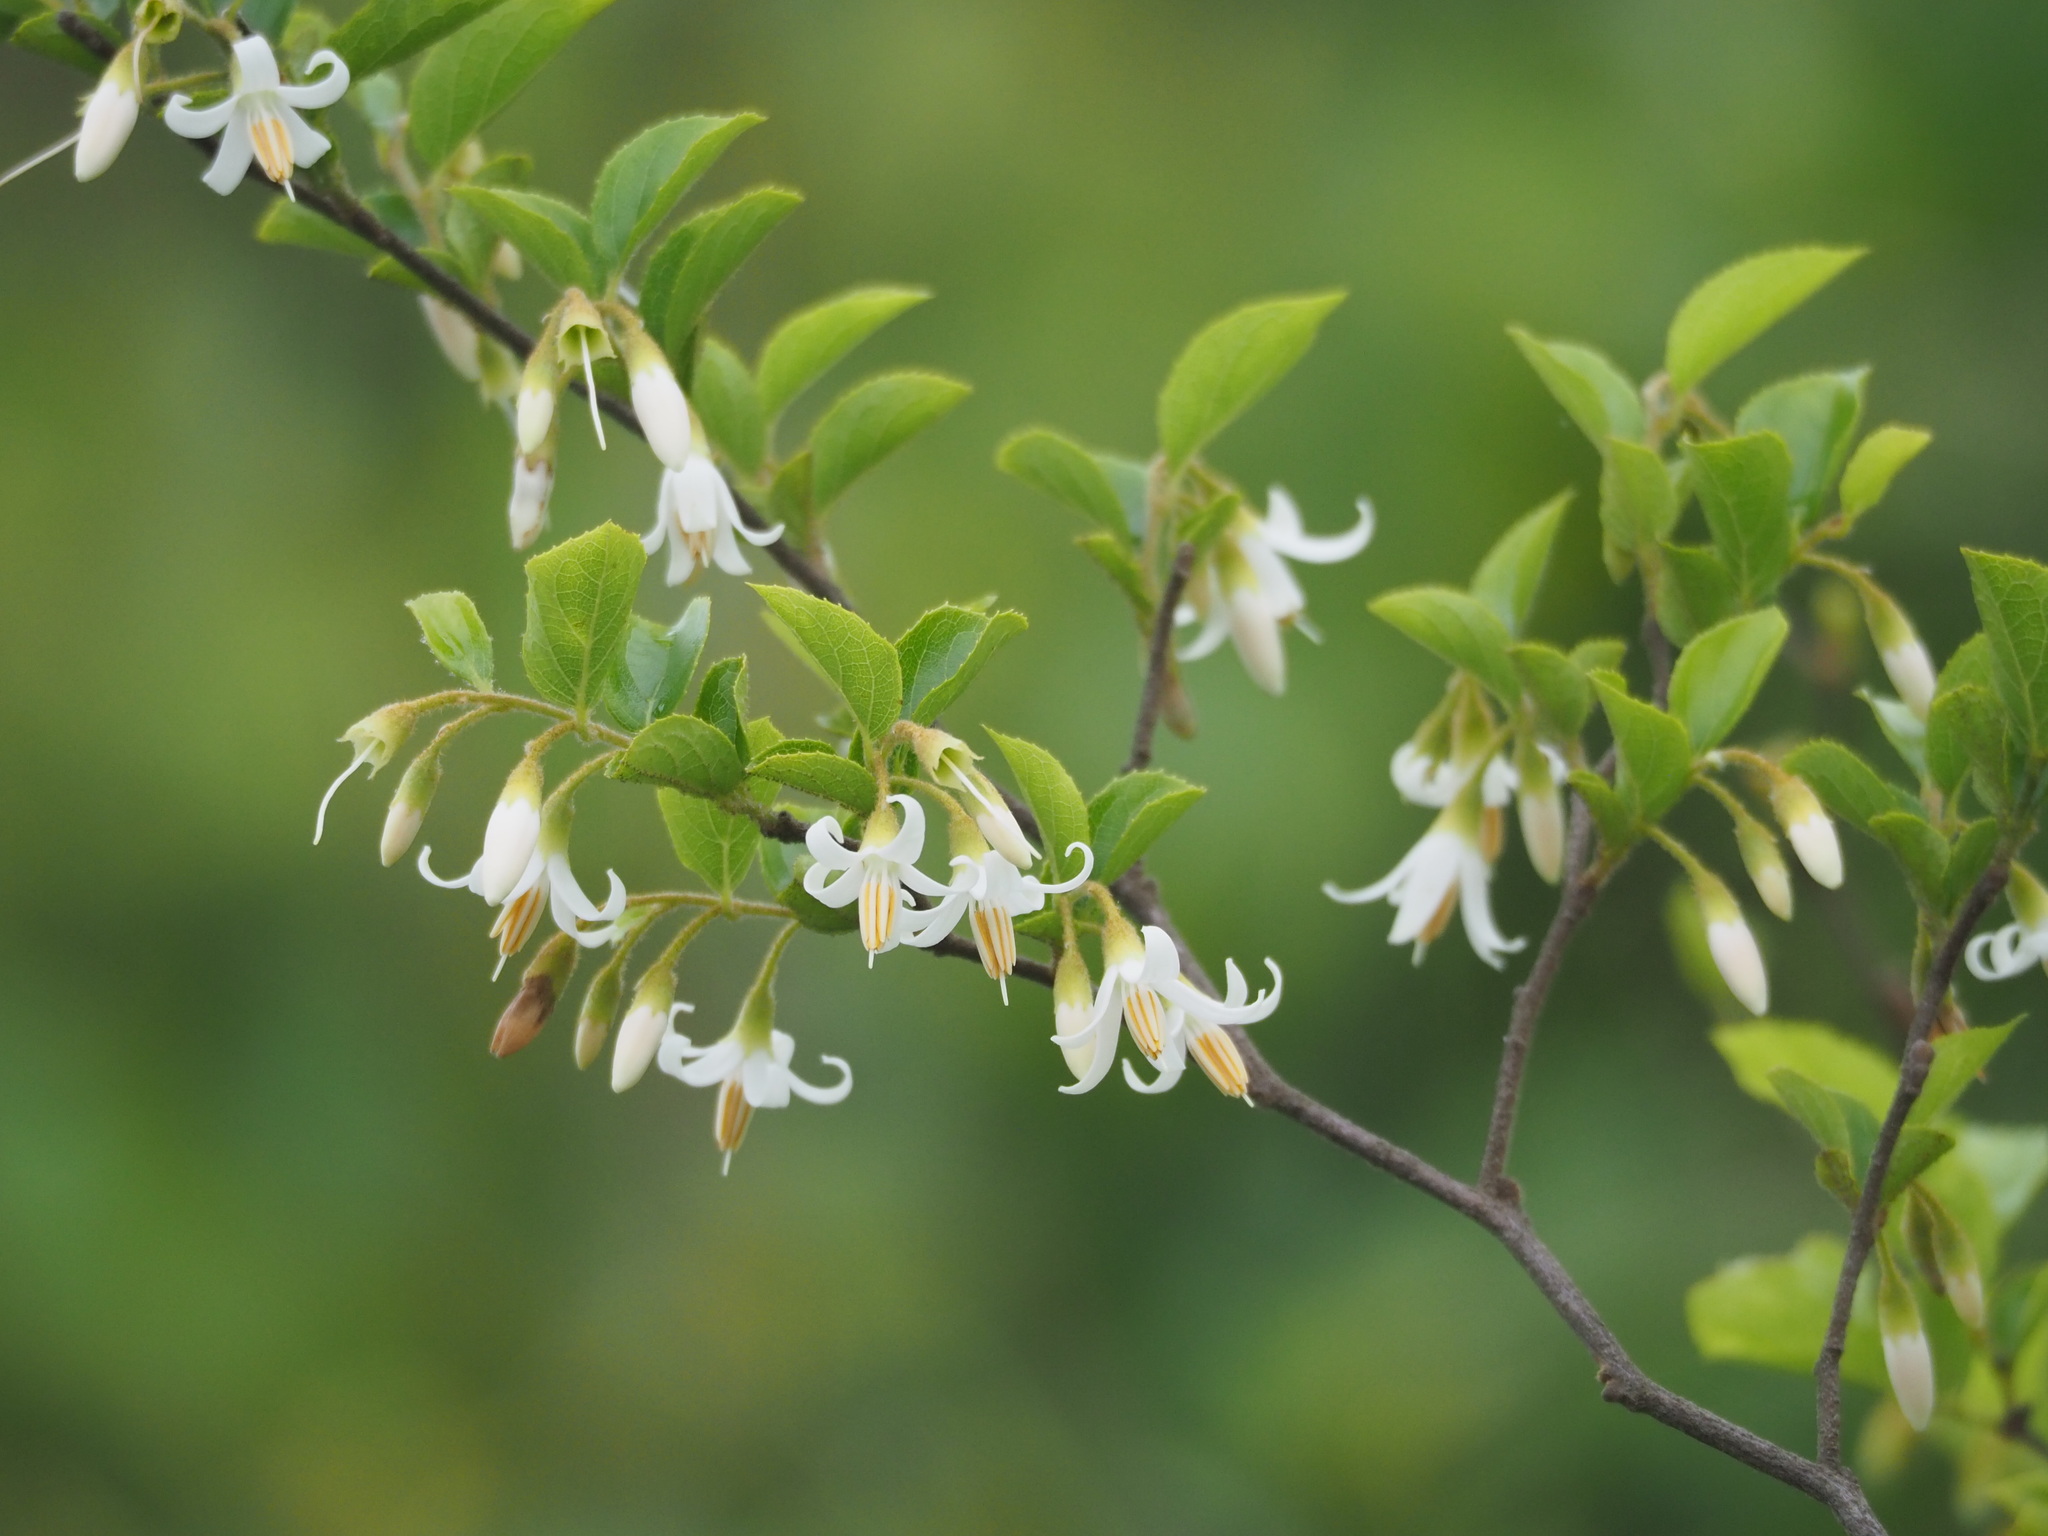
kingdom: Plantae
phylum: Tracheophyta
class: Magnoliopsida
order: Ericales
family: Styracaceae
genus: Styrax
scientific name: Styrax faberi
